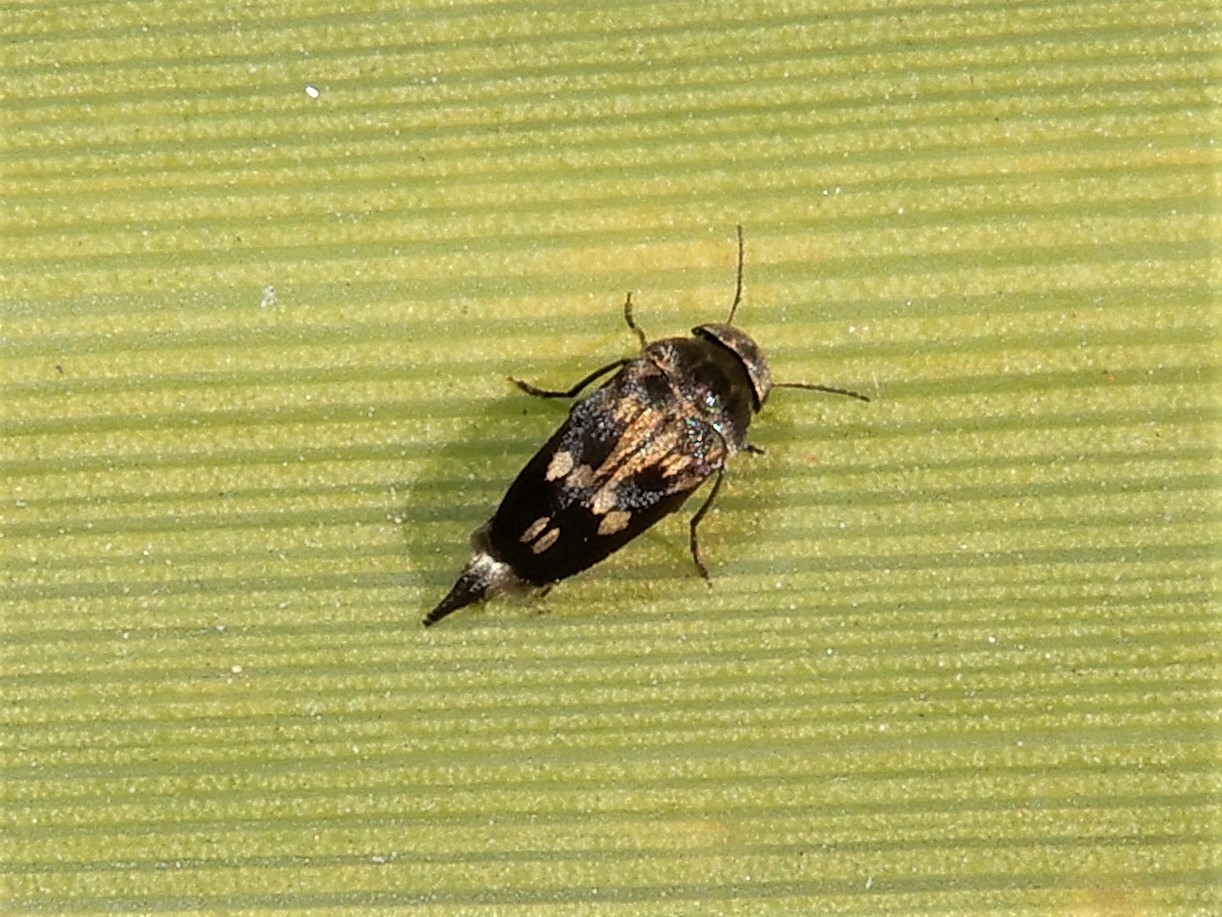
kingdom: Animalia
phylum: Arthropoda
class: Insecta
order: Coleoptera
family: Mordellidae
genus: Zeamordella
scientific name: Zeamordella monacha
